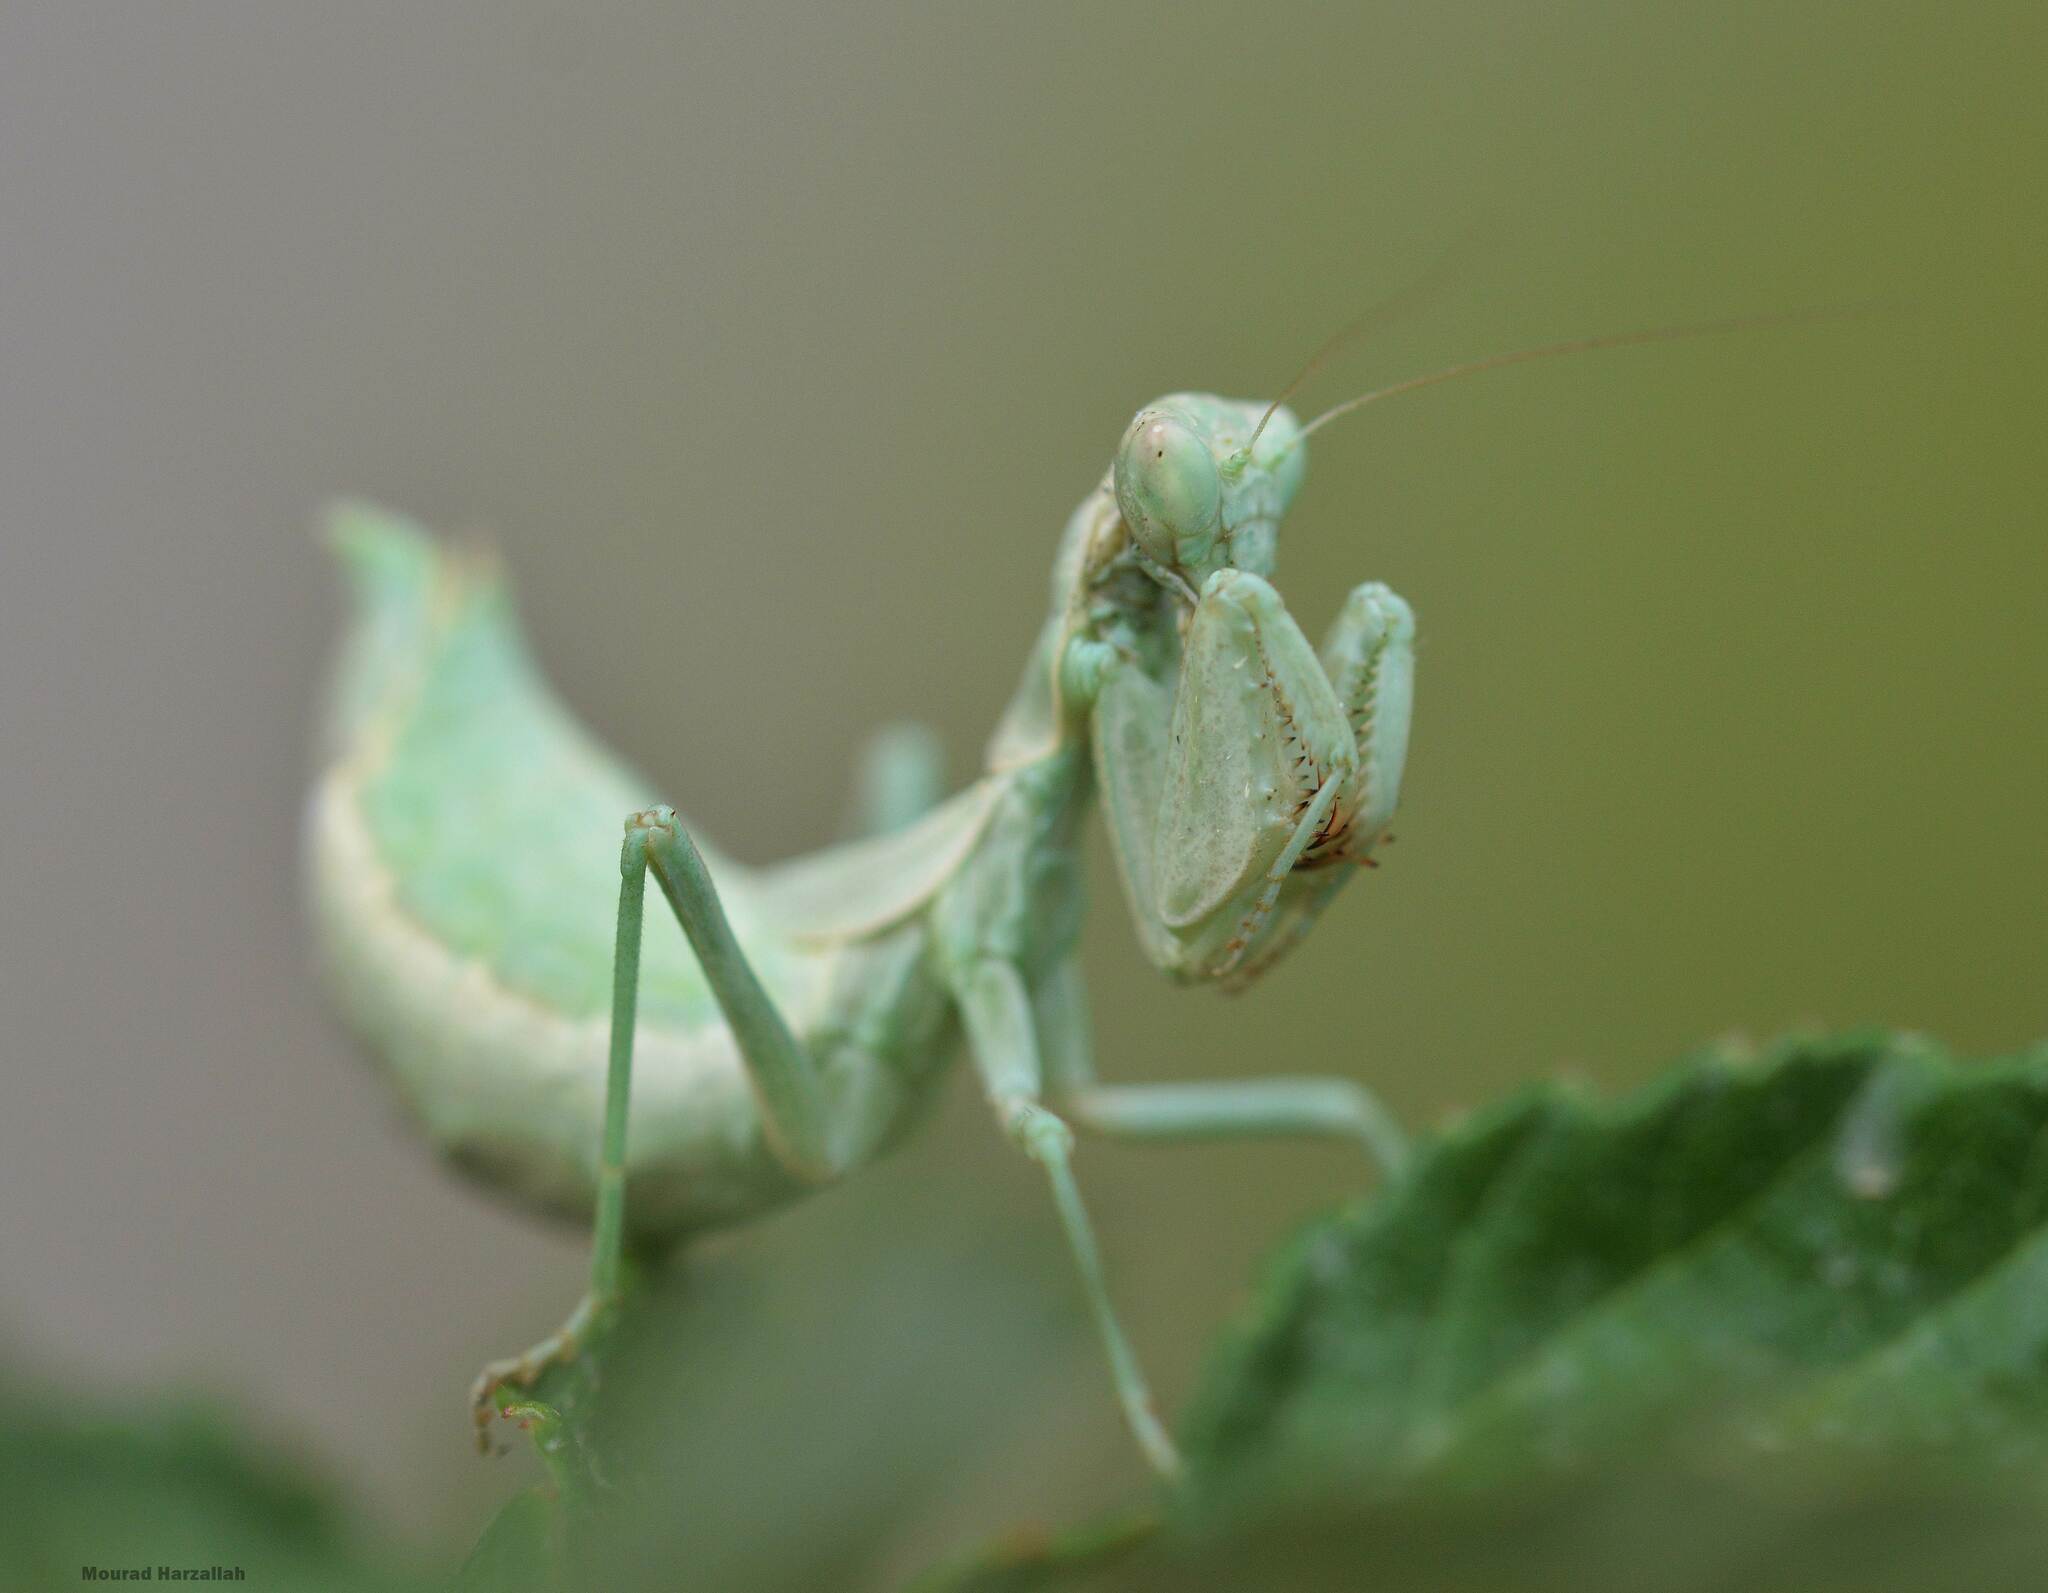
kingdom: Animalia
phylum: Arthropoda
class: Insecta
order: Mantodea
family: Amelidae
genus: Ameles
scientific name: Ameles spallanzania
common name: European dwarf mantis
